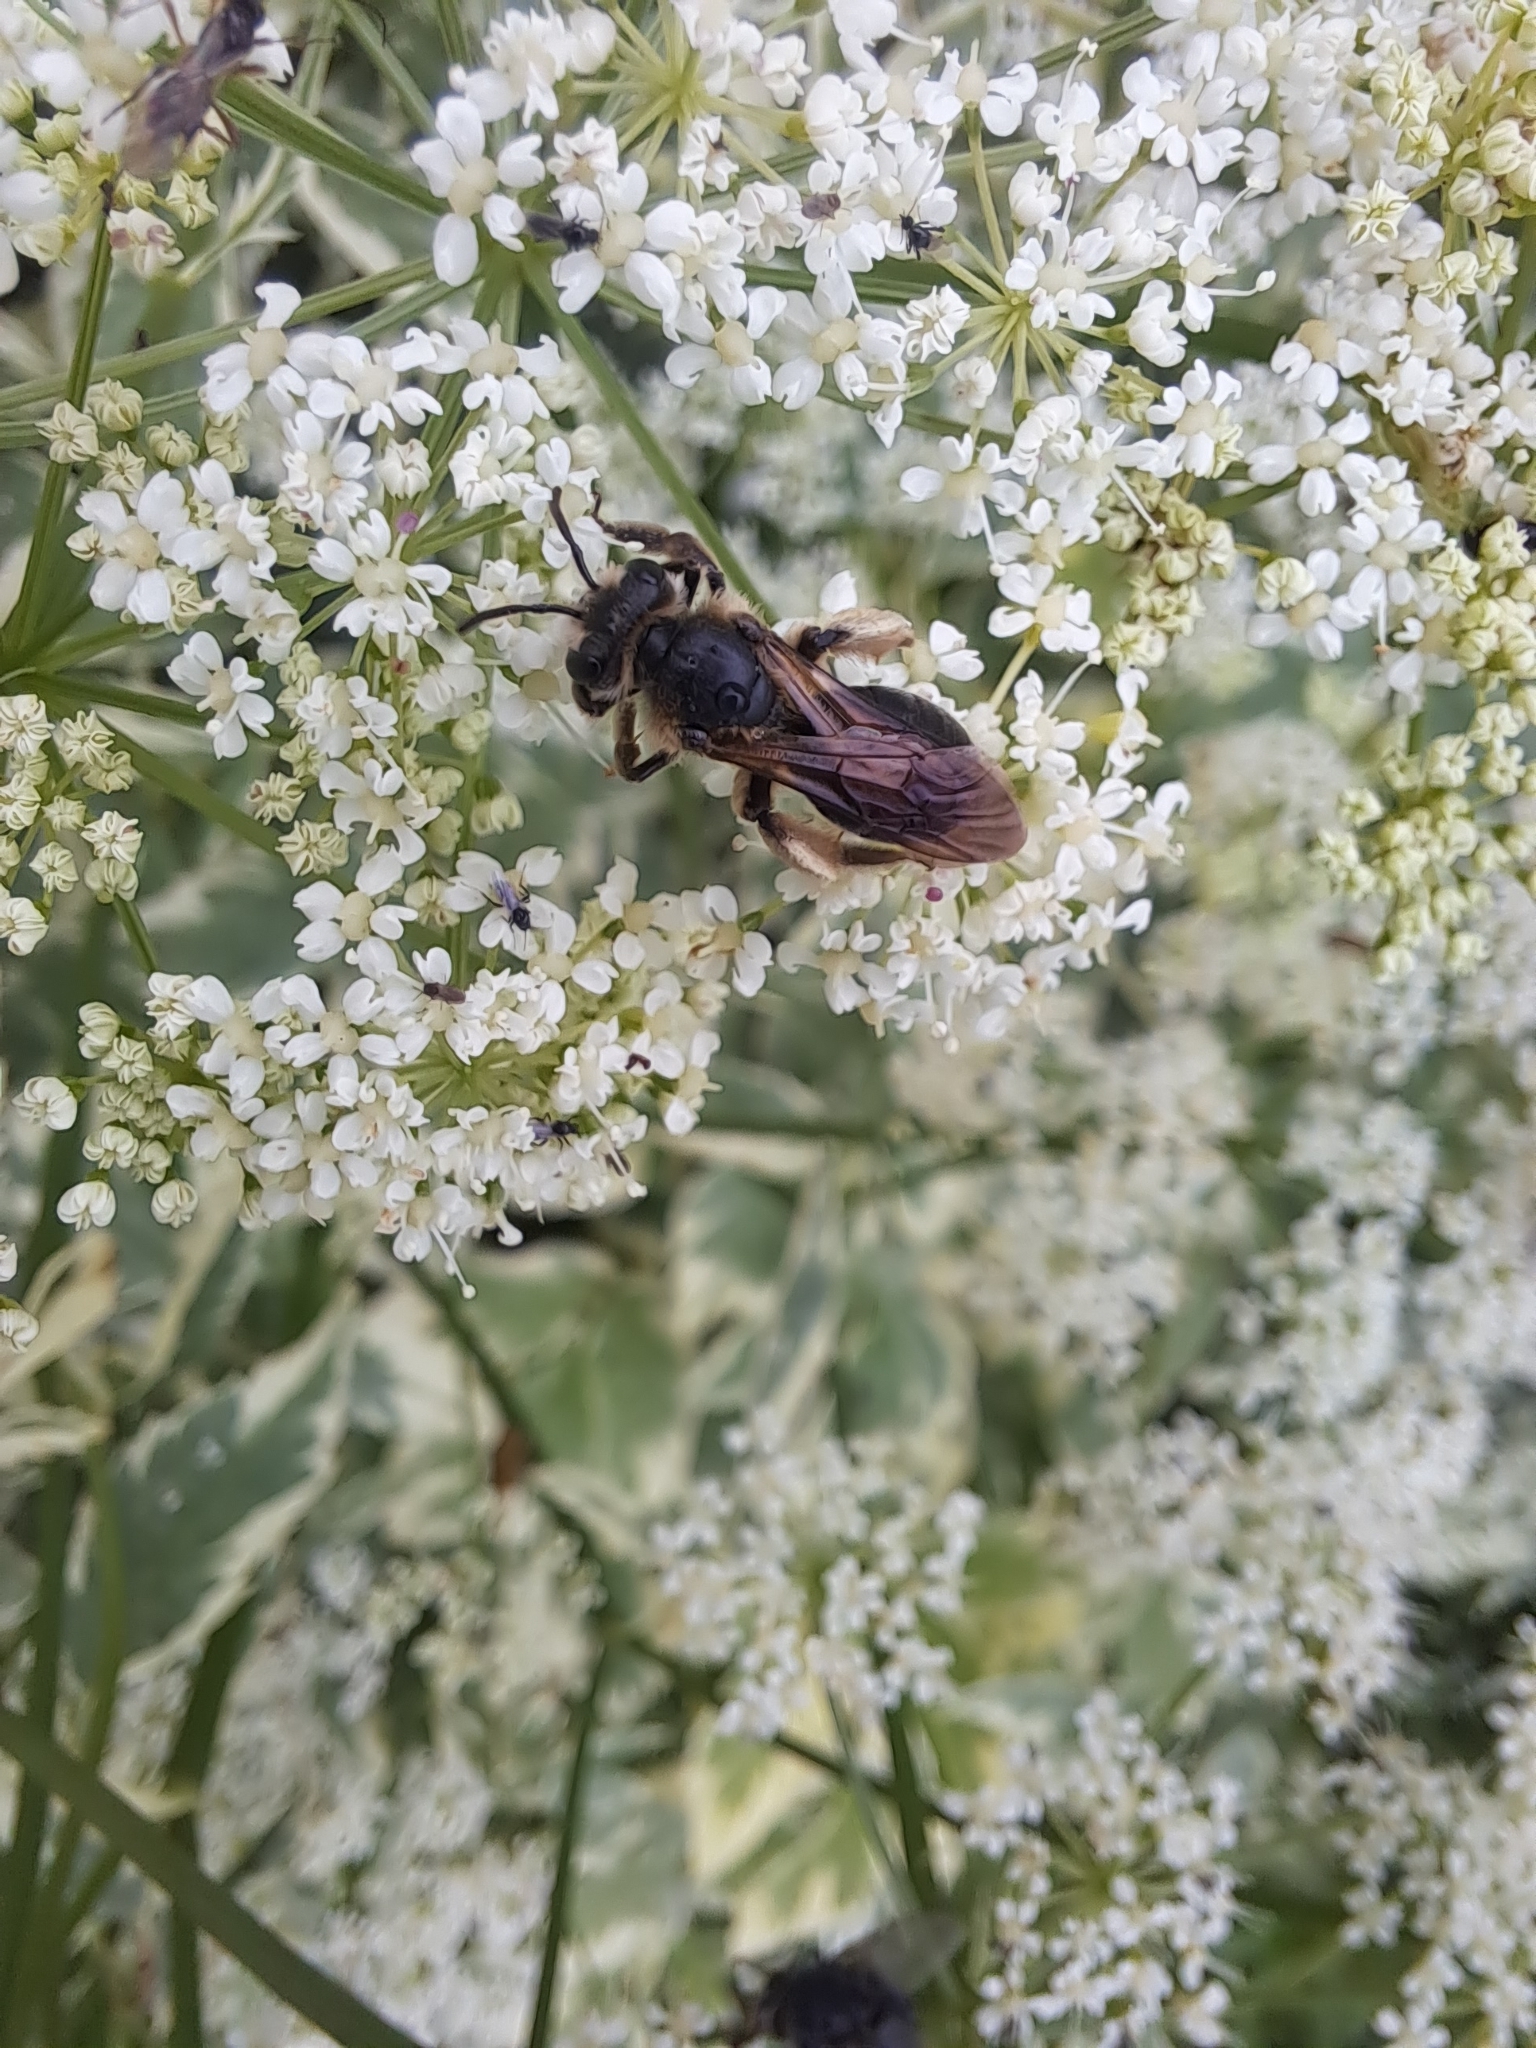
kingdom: Animalia
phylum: Arthropoda
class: Insecta
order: Hymenoptera
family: Andrenidae
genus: Andrena
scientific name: Andrena crataegi
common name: Hawthorn mining bee
